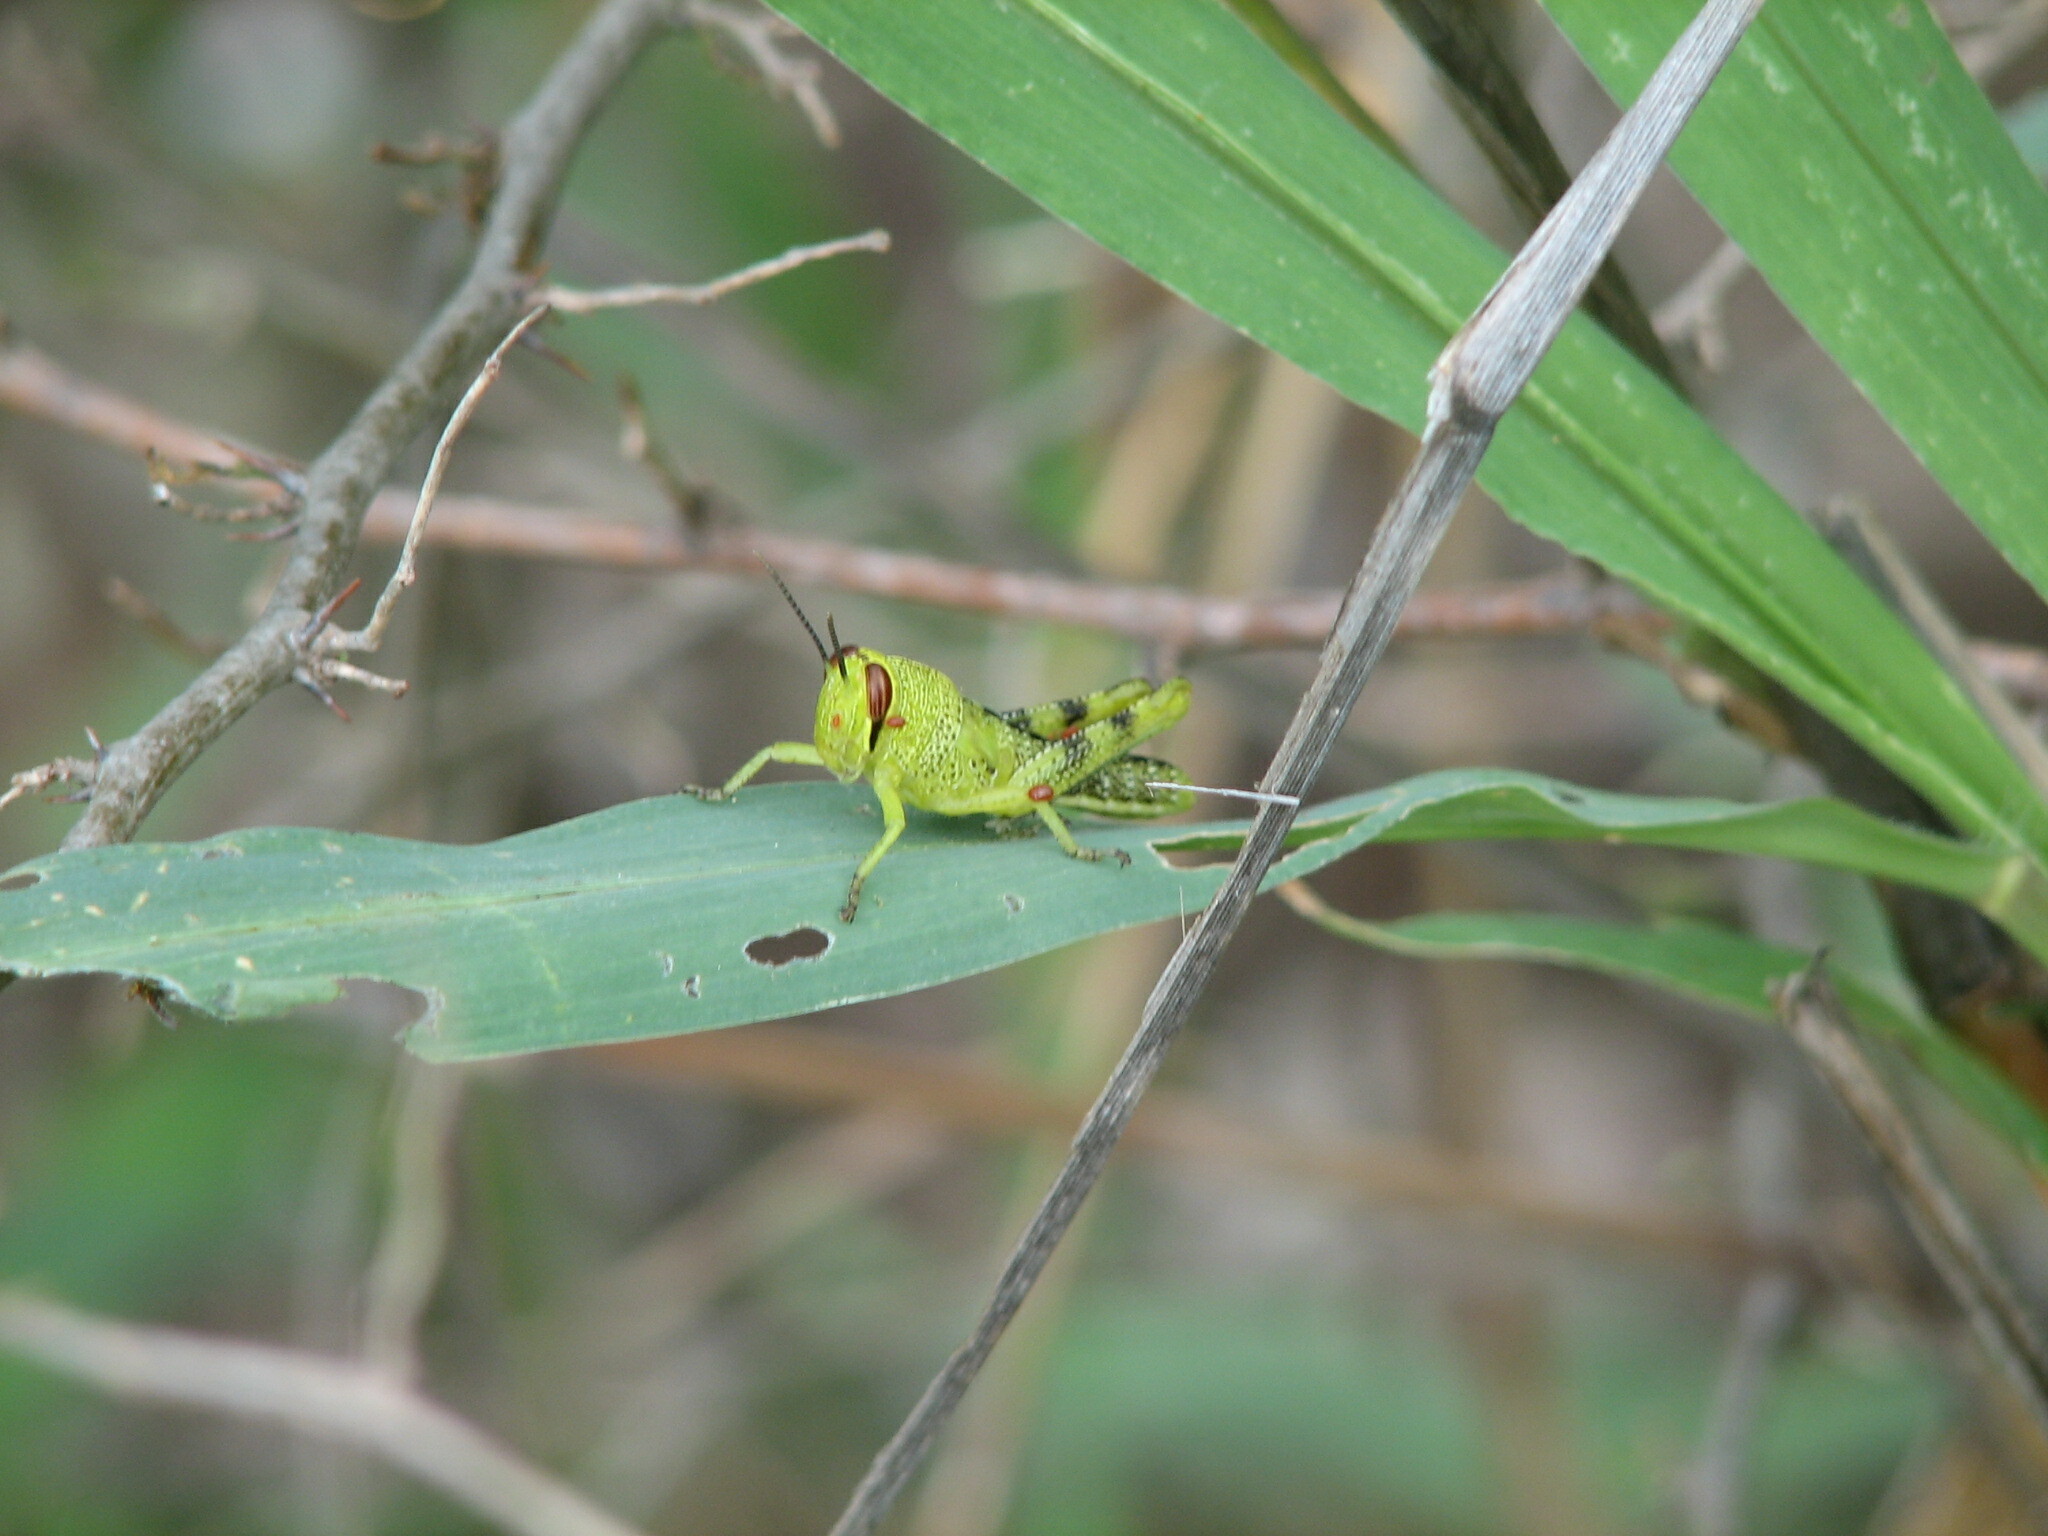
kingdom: Animalia
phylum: Arthropoda
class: Insecta
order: Orthoptera
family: Acrididae
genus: Schistocerca
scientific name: Schistocerca obscura
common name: Obscure bird grasshopper
